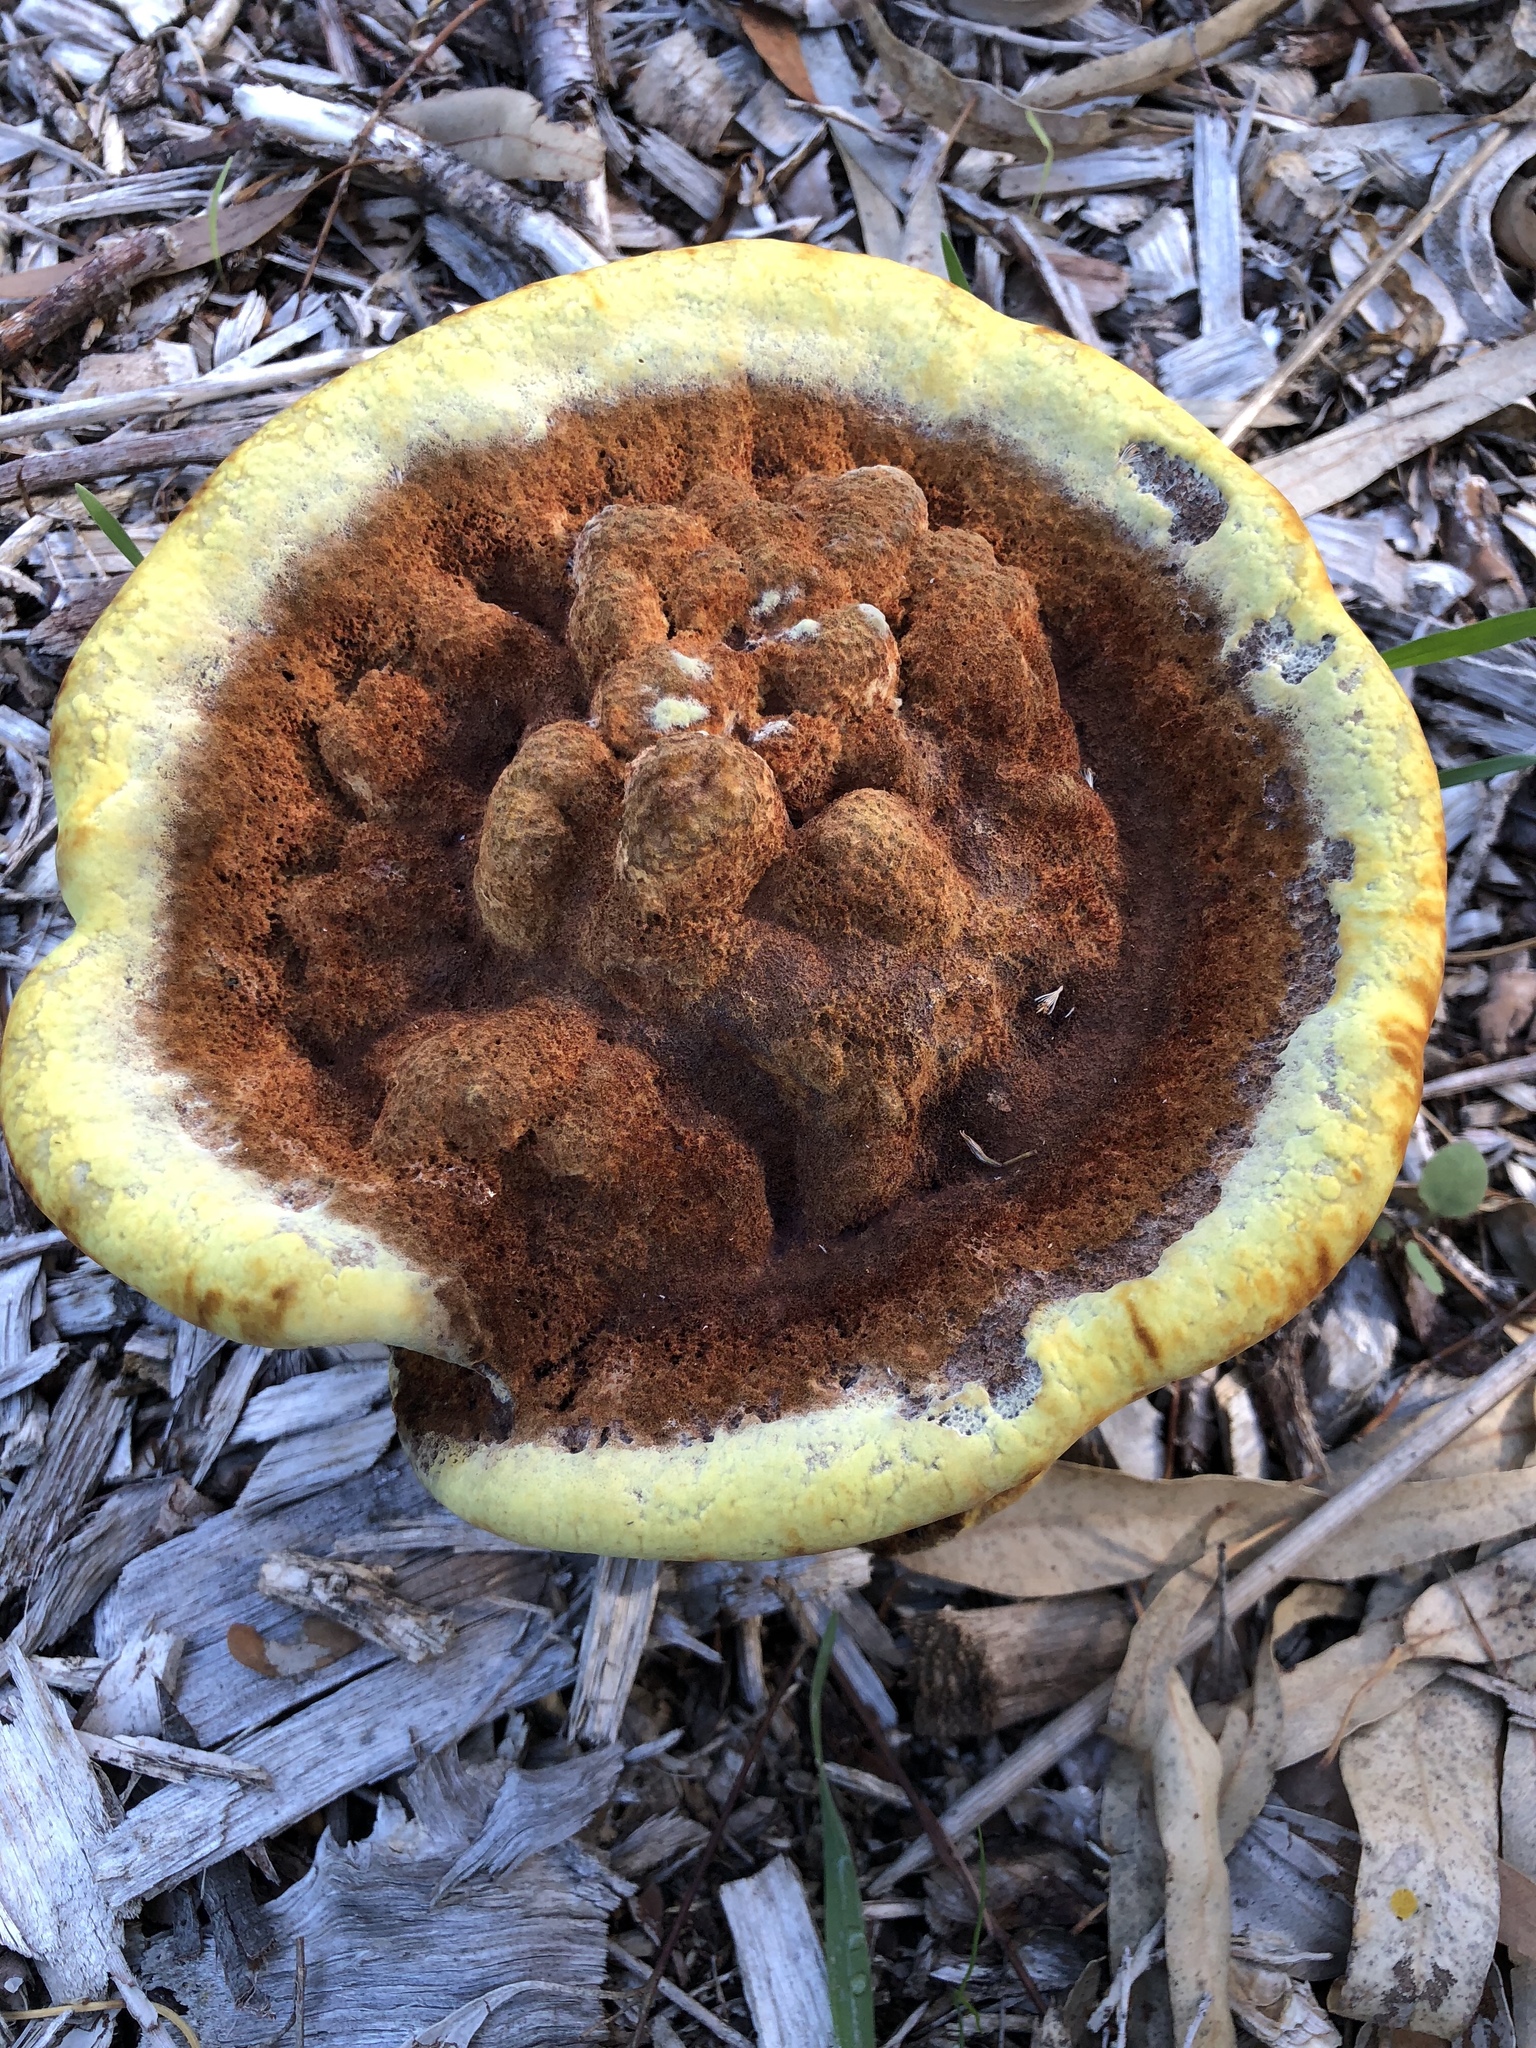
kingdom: Fungi
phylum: Basidiomycota
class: Agaricomycetes
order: Polyporales
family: Laetiporaceae
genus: Phaeolus
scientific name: Phaeolus schweinitzii
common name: Dyer's mazegill
